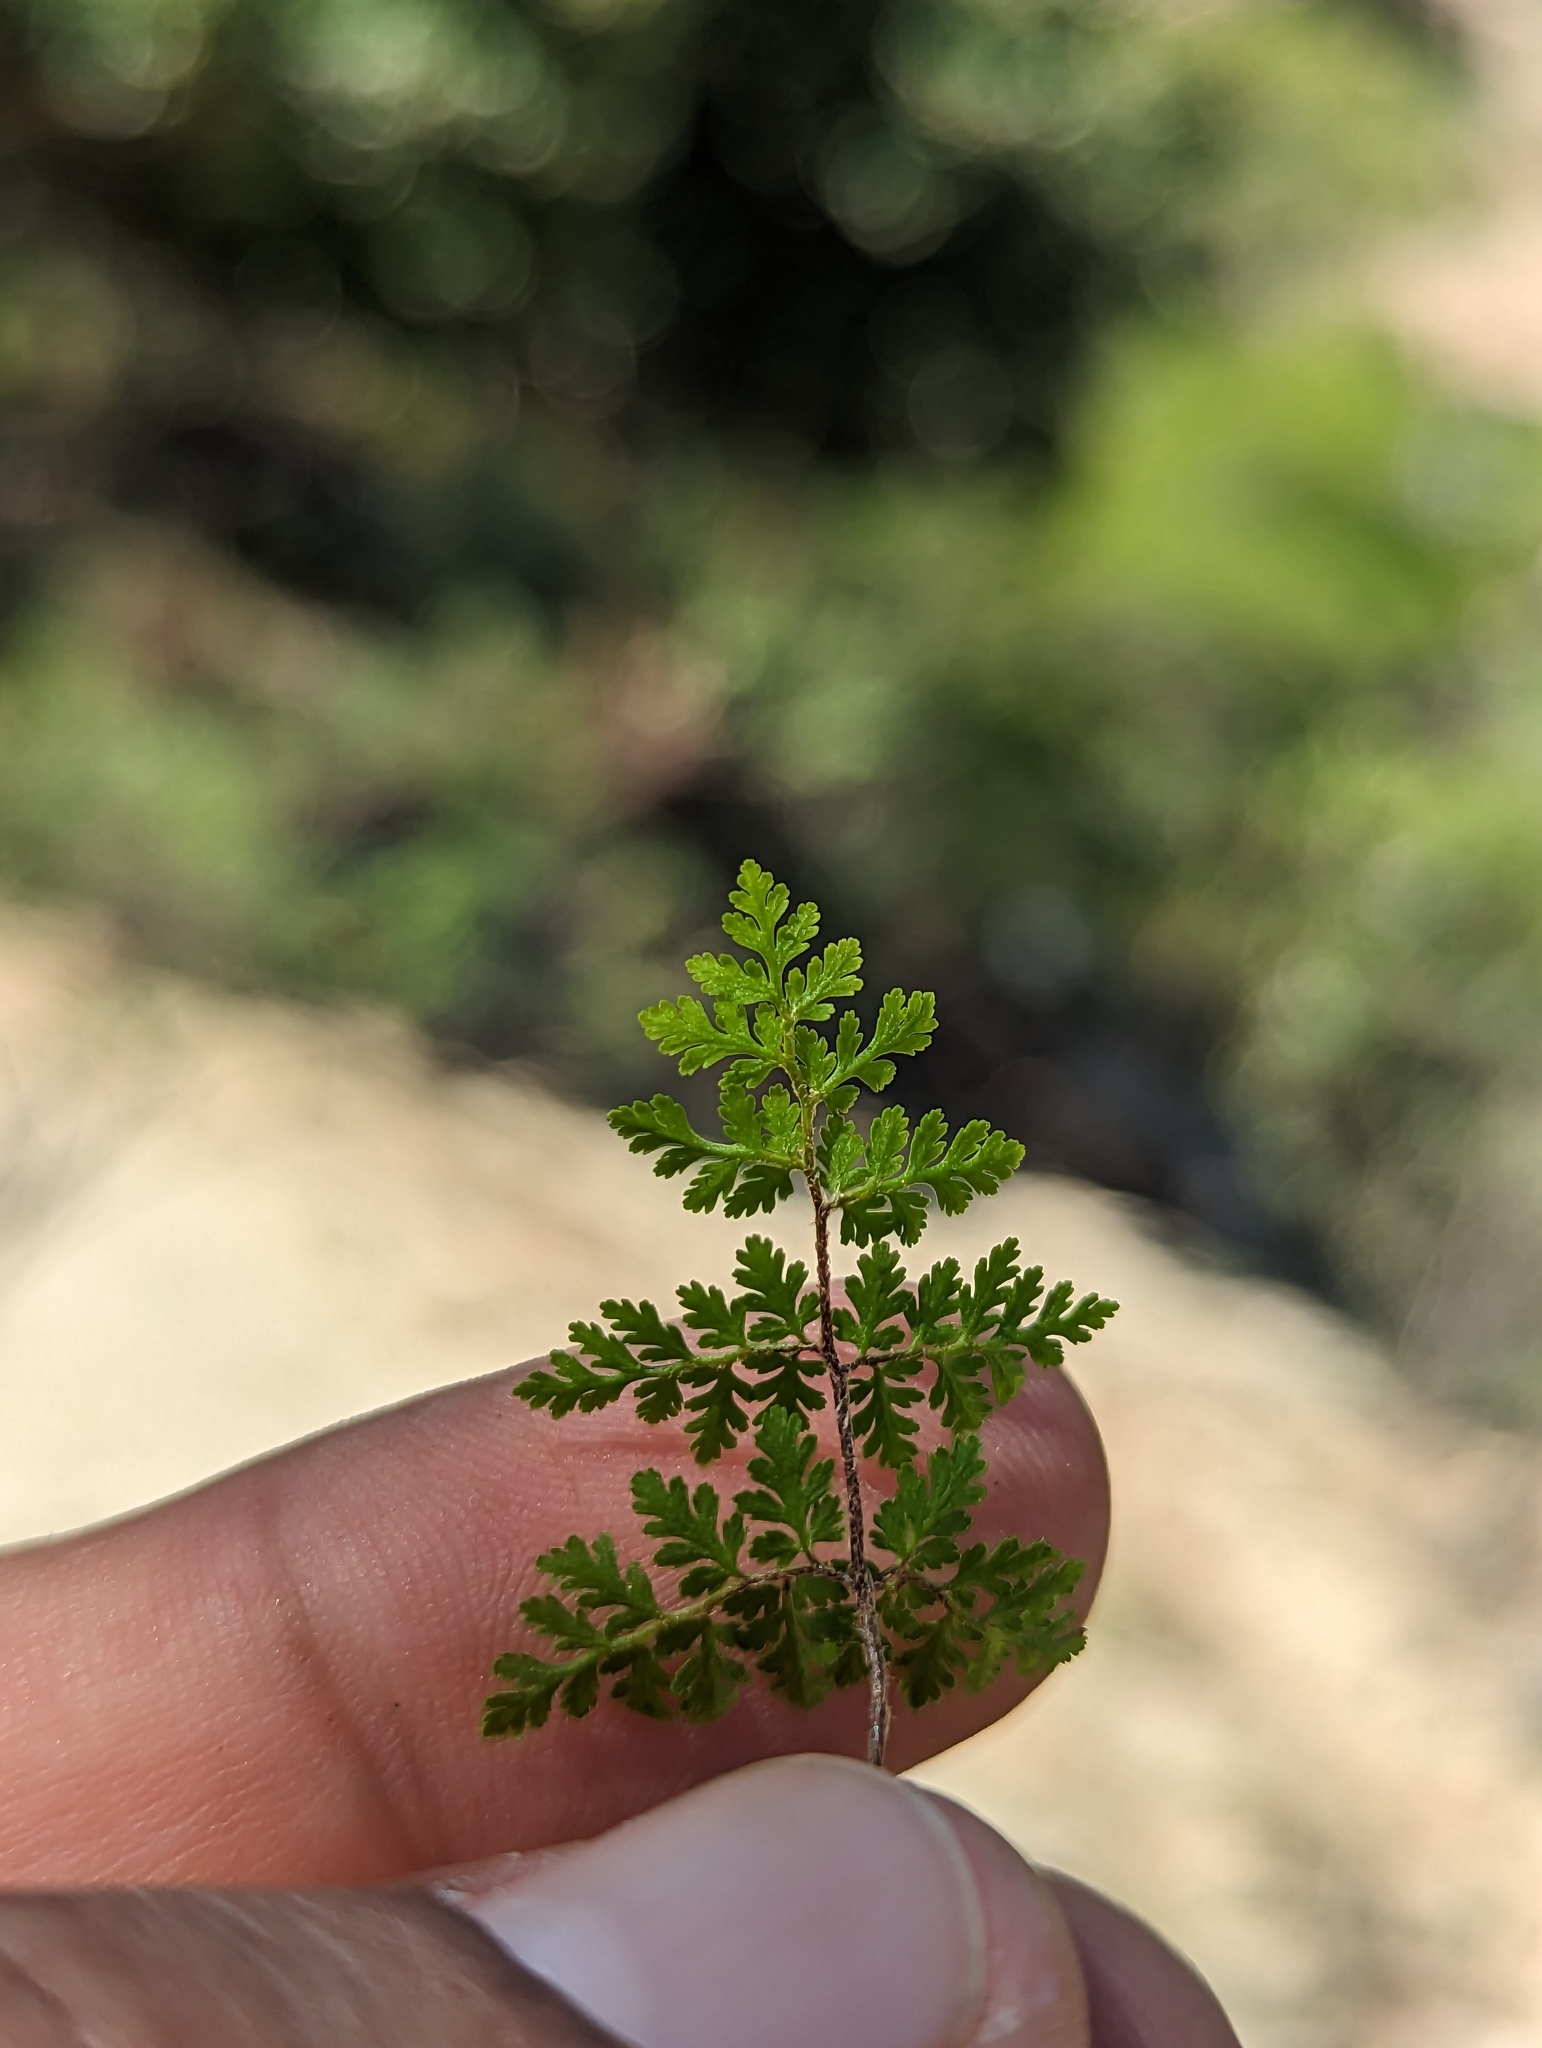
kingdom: Plantae
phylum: Tracheophyta
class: Polypodiopsida
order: Polypodiales
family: Pteridaceae
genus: Myriopteris
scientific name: Myriopteris peninsularis
